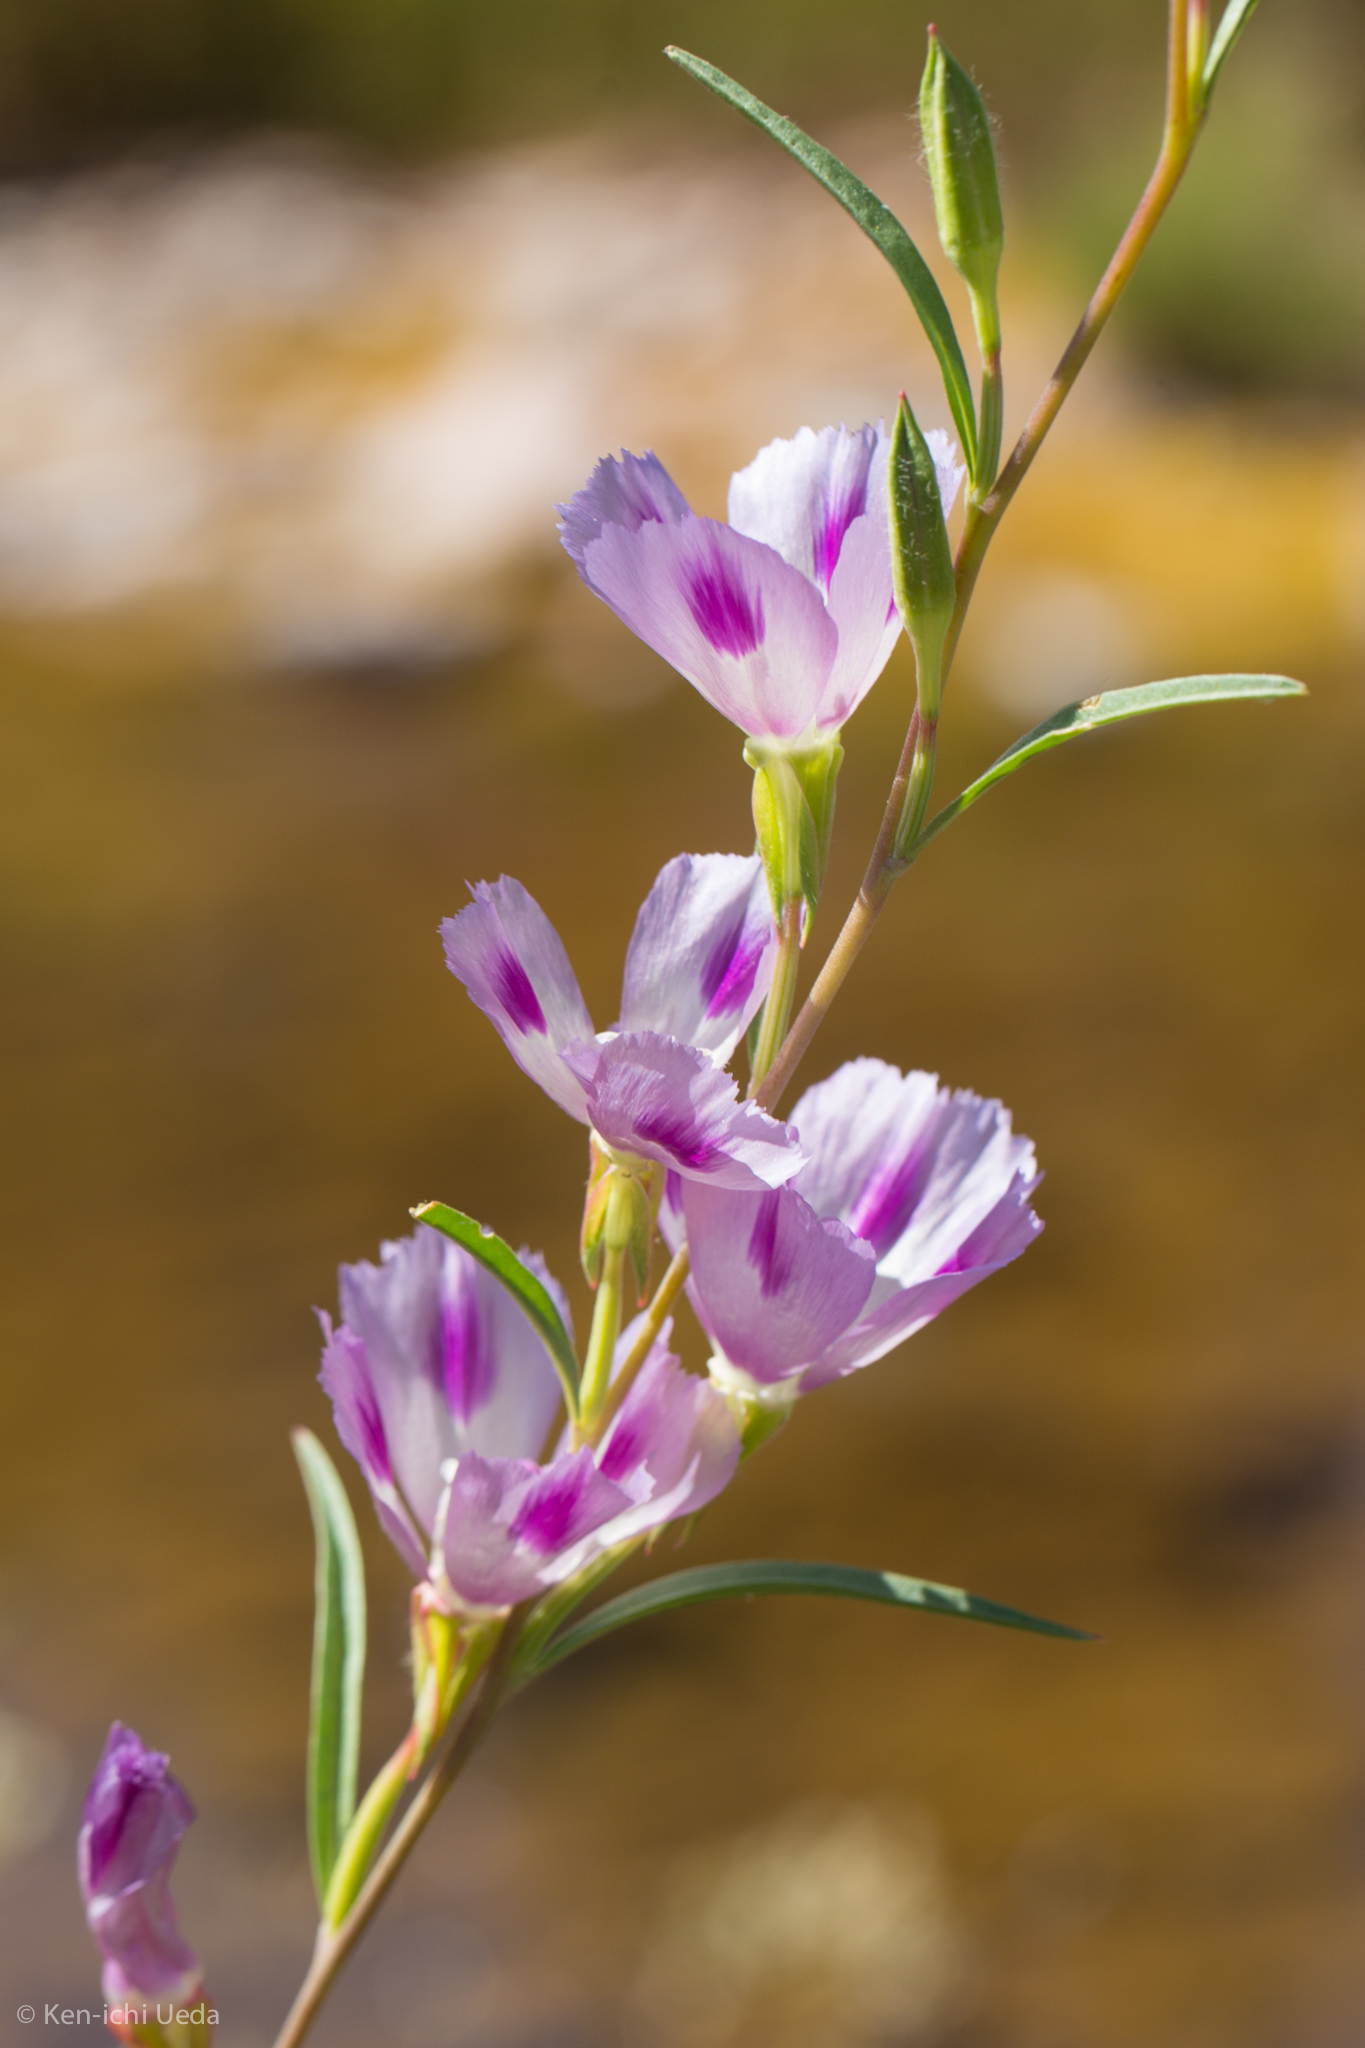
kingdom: Plantae
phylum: Tracheophyta
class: Magnoliopsida
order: Myrtales
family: Onagraceae
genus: Clarkia
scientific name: Clarkia williamsonii
